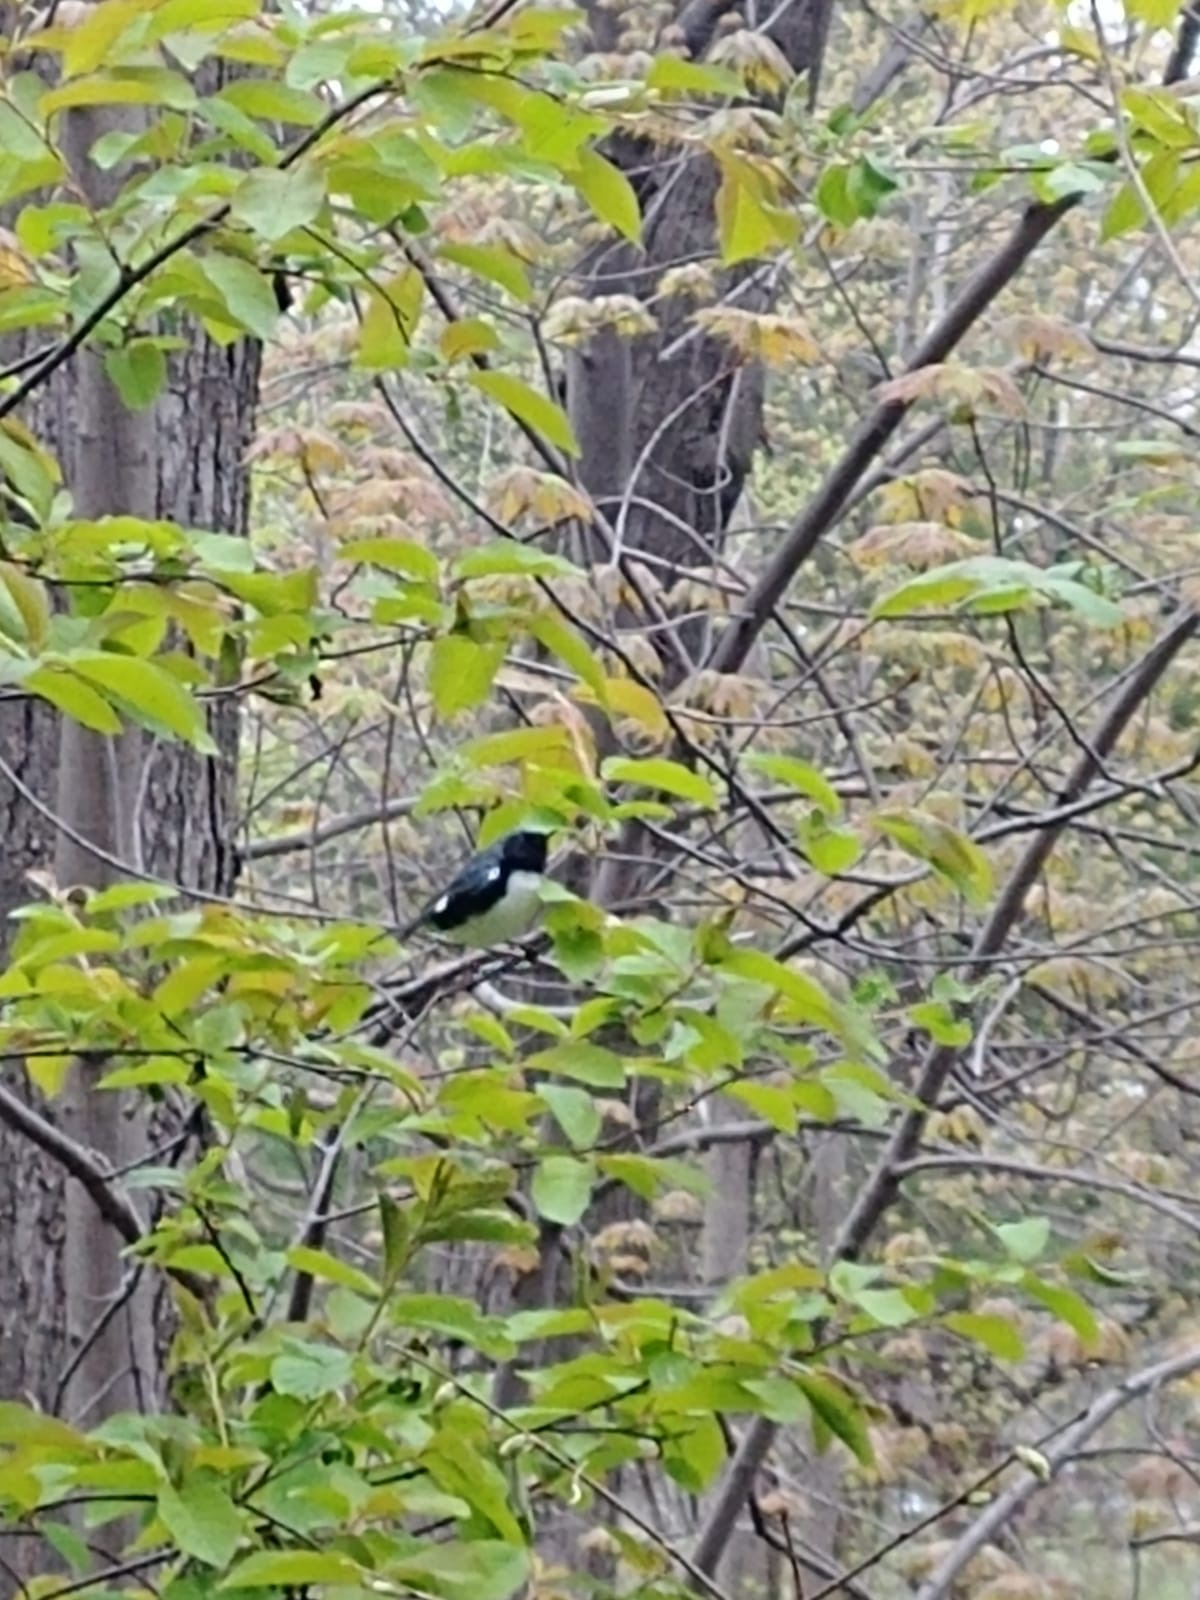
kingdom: Animalia
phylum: Chordata
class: Aves
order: Passeriformes
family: Parulidae
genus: Setophaga
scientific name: Setophaga caerulescens
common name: Black-throated blue warbler
